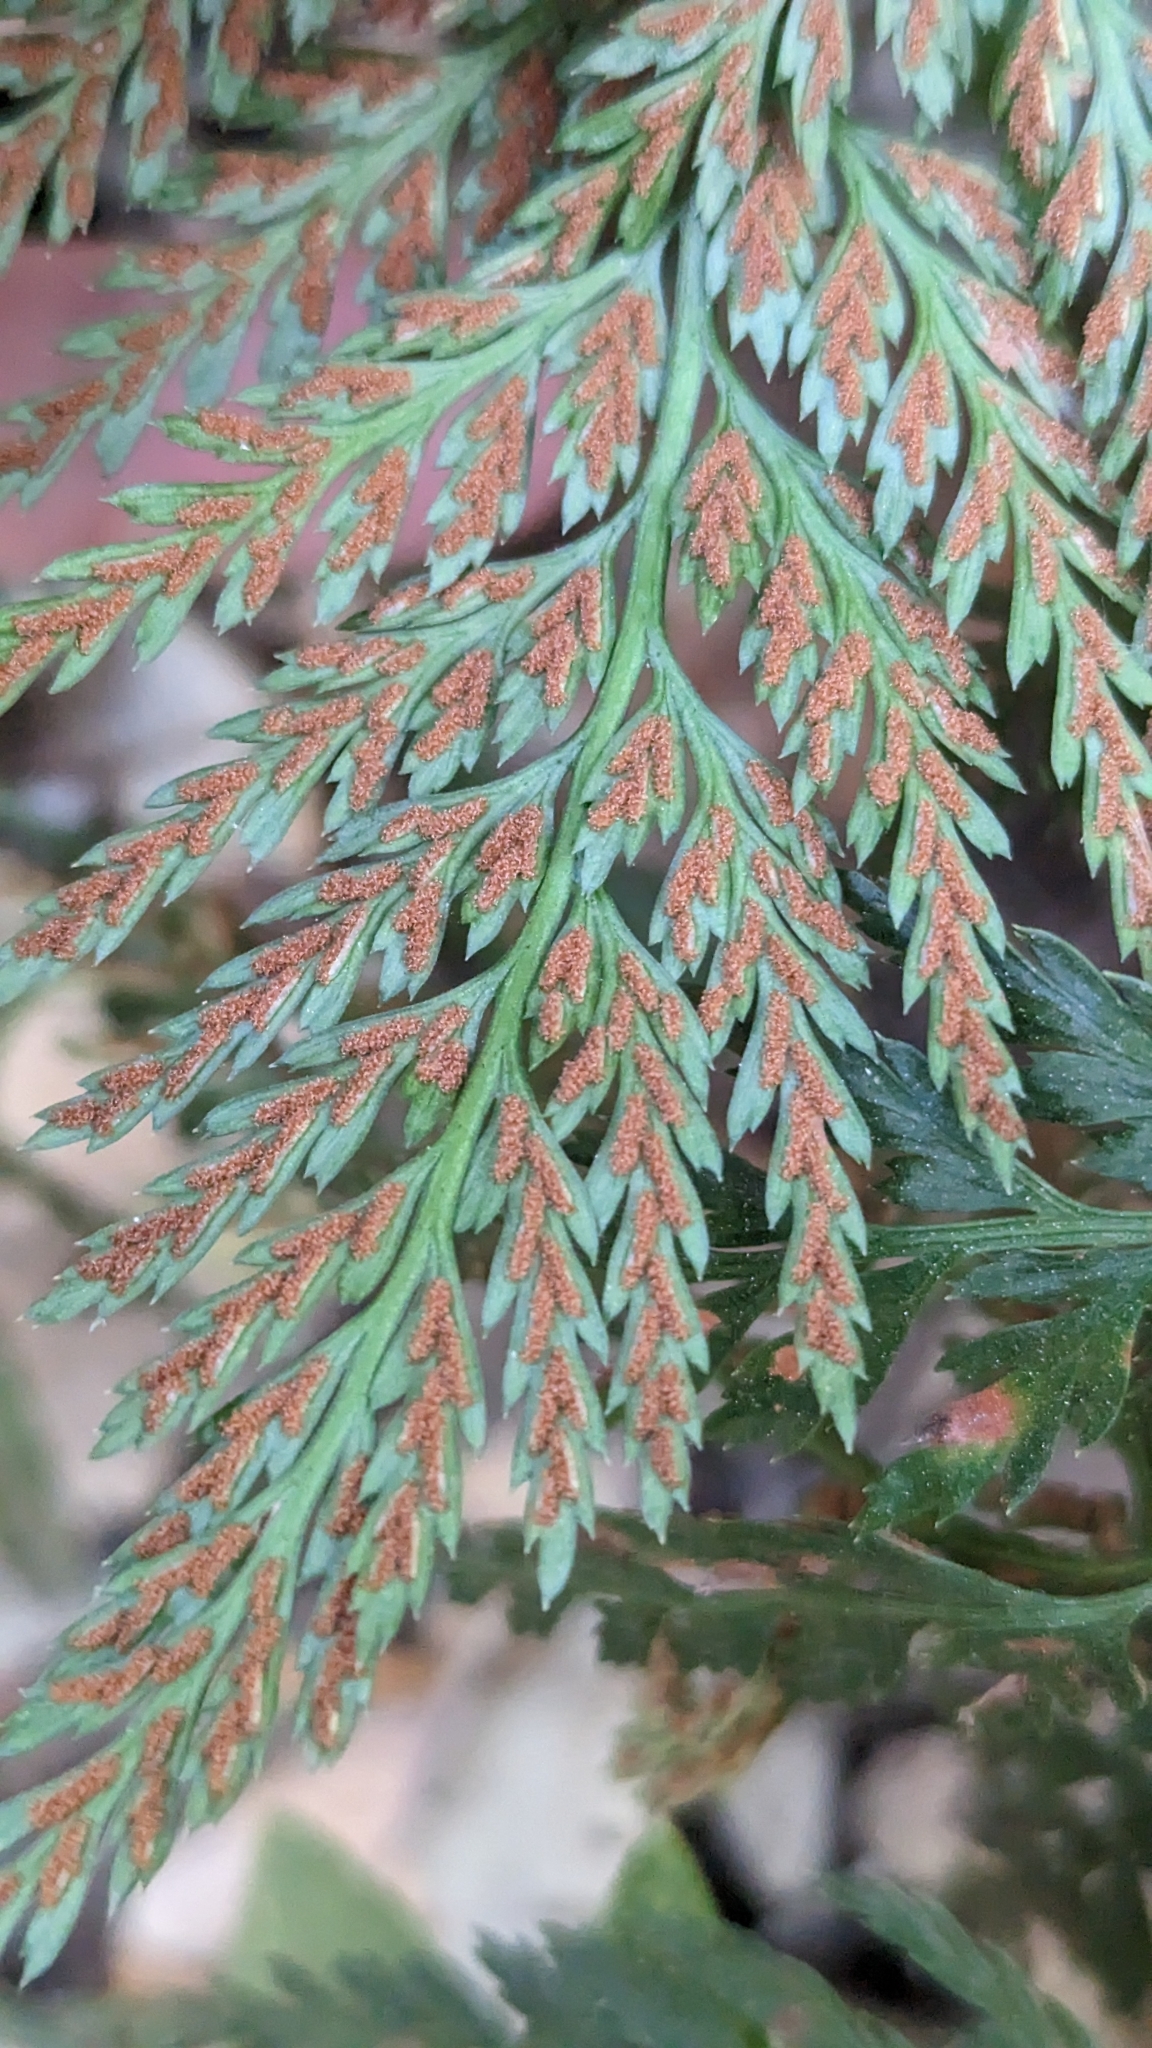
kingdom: Plantae
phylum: Tracheophyta
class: Polypodiopsida
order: Polypodiales
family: Aspleniaceae
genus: Asplenium
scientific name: Asplenium onopteris
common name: Irish spleenwort
